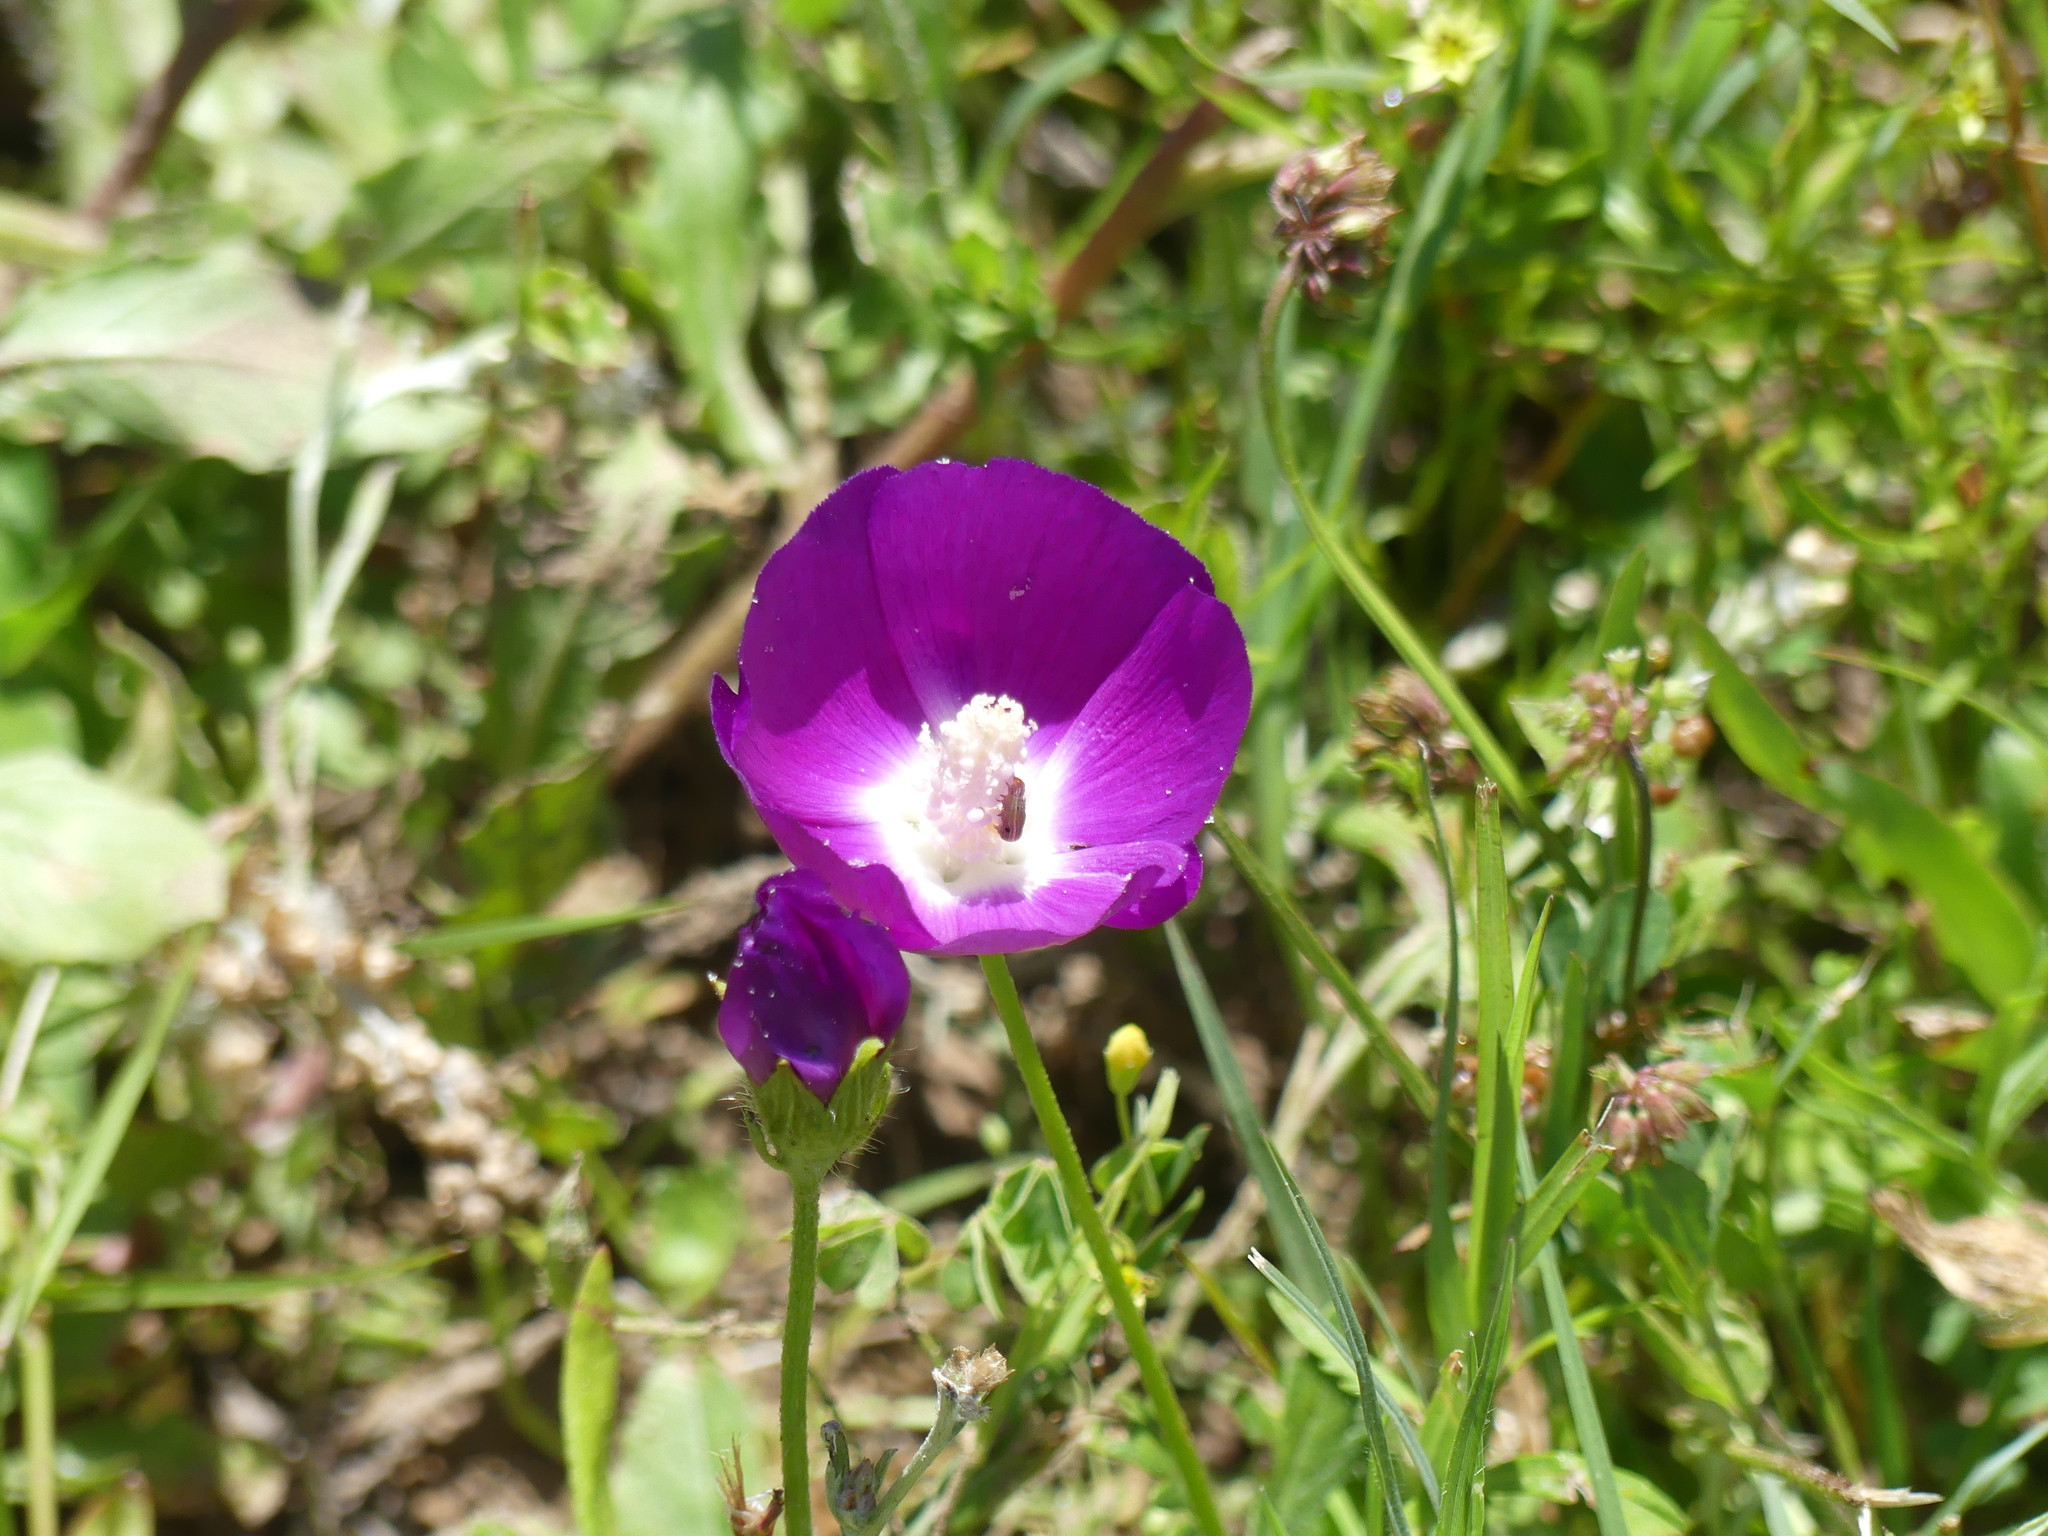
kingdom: Plantae
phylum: Tracheophyta
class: Magnoliopsida
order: Malvales
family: Malvaceae
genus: Callirhoe
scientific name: Callirhoe involucrata
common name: Purple poppy-mallow
